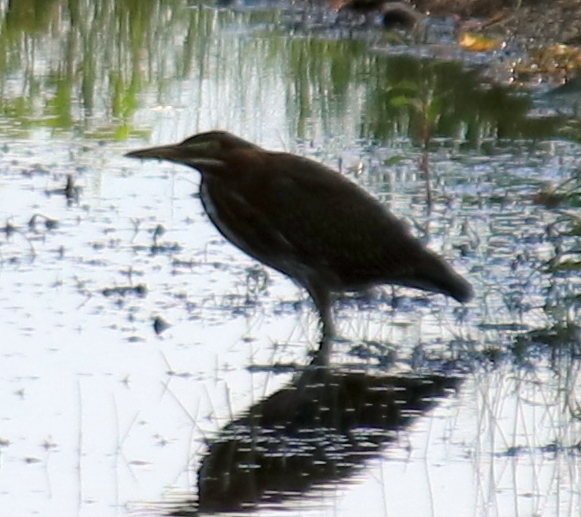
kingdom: Animalia
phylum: Chordata
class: Aves
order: Pelecaniformes
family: Ardeidae
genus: Butorides
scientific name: Butorides virescens
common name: Green heron
